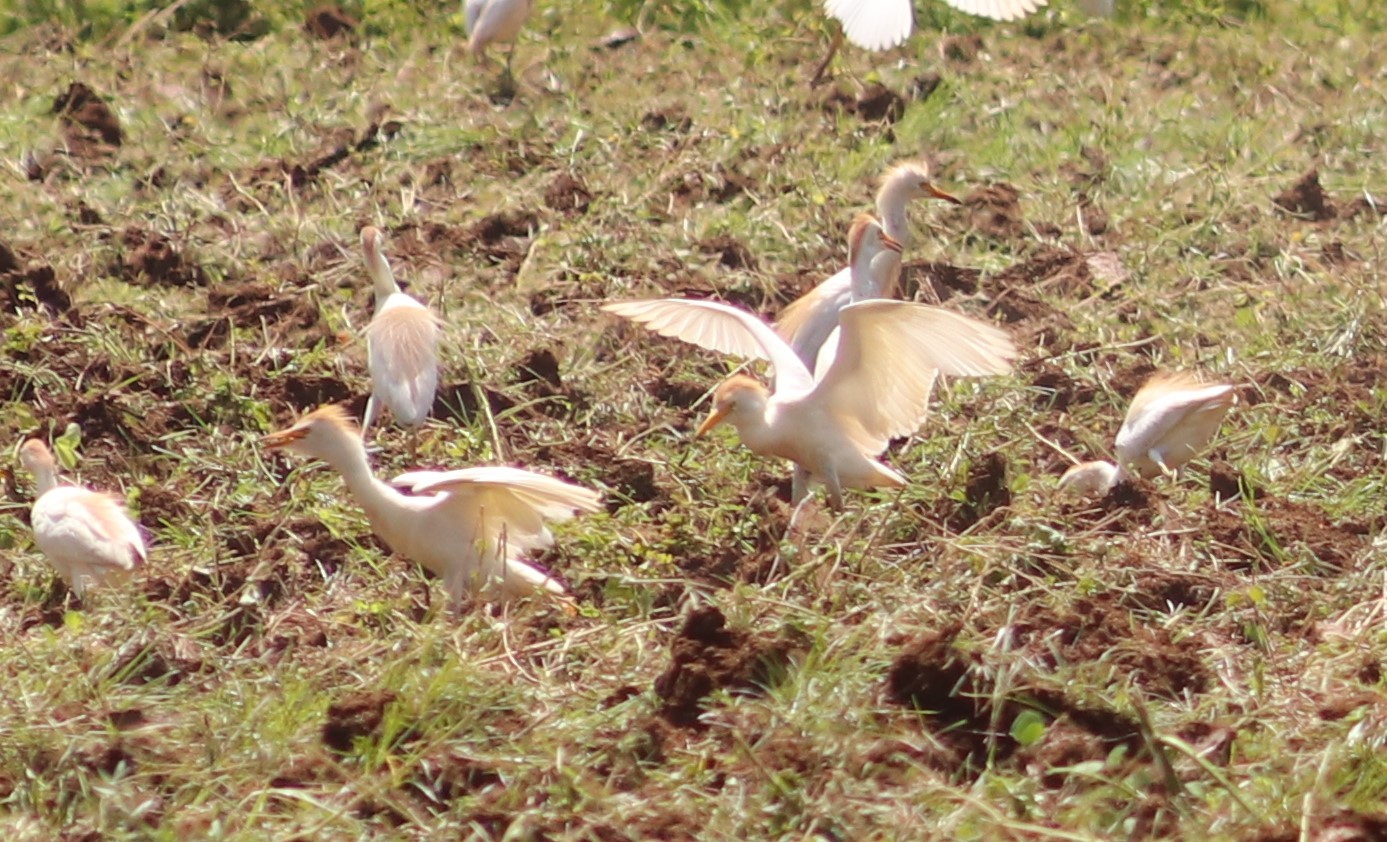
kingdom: Animalia
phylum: Chordata
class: Aves
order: Pelecaniformes
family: Ardeidae
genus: Bubulcus
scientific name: Bubulcus ibis
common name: Cattle egret
